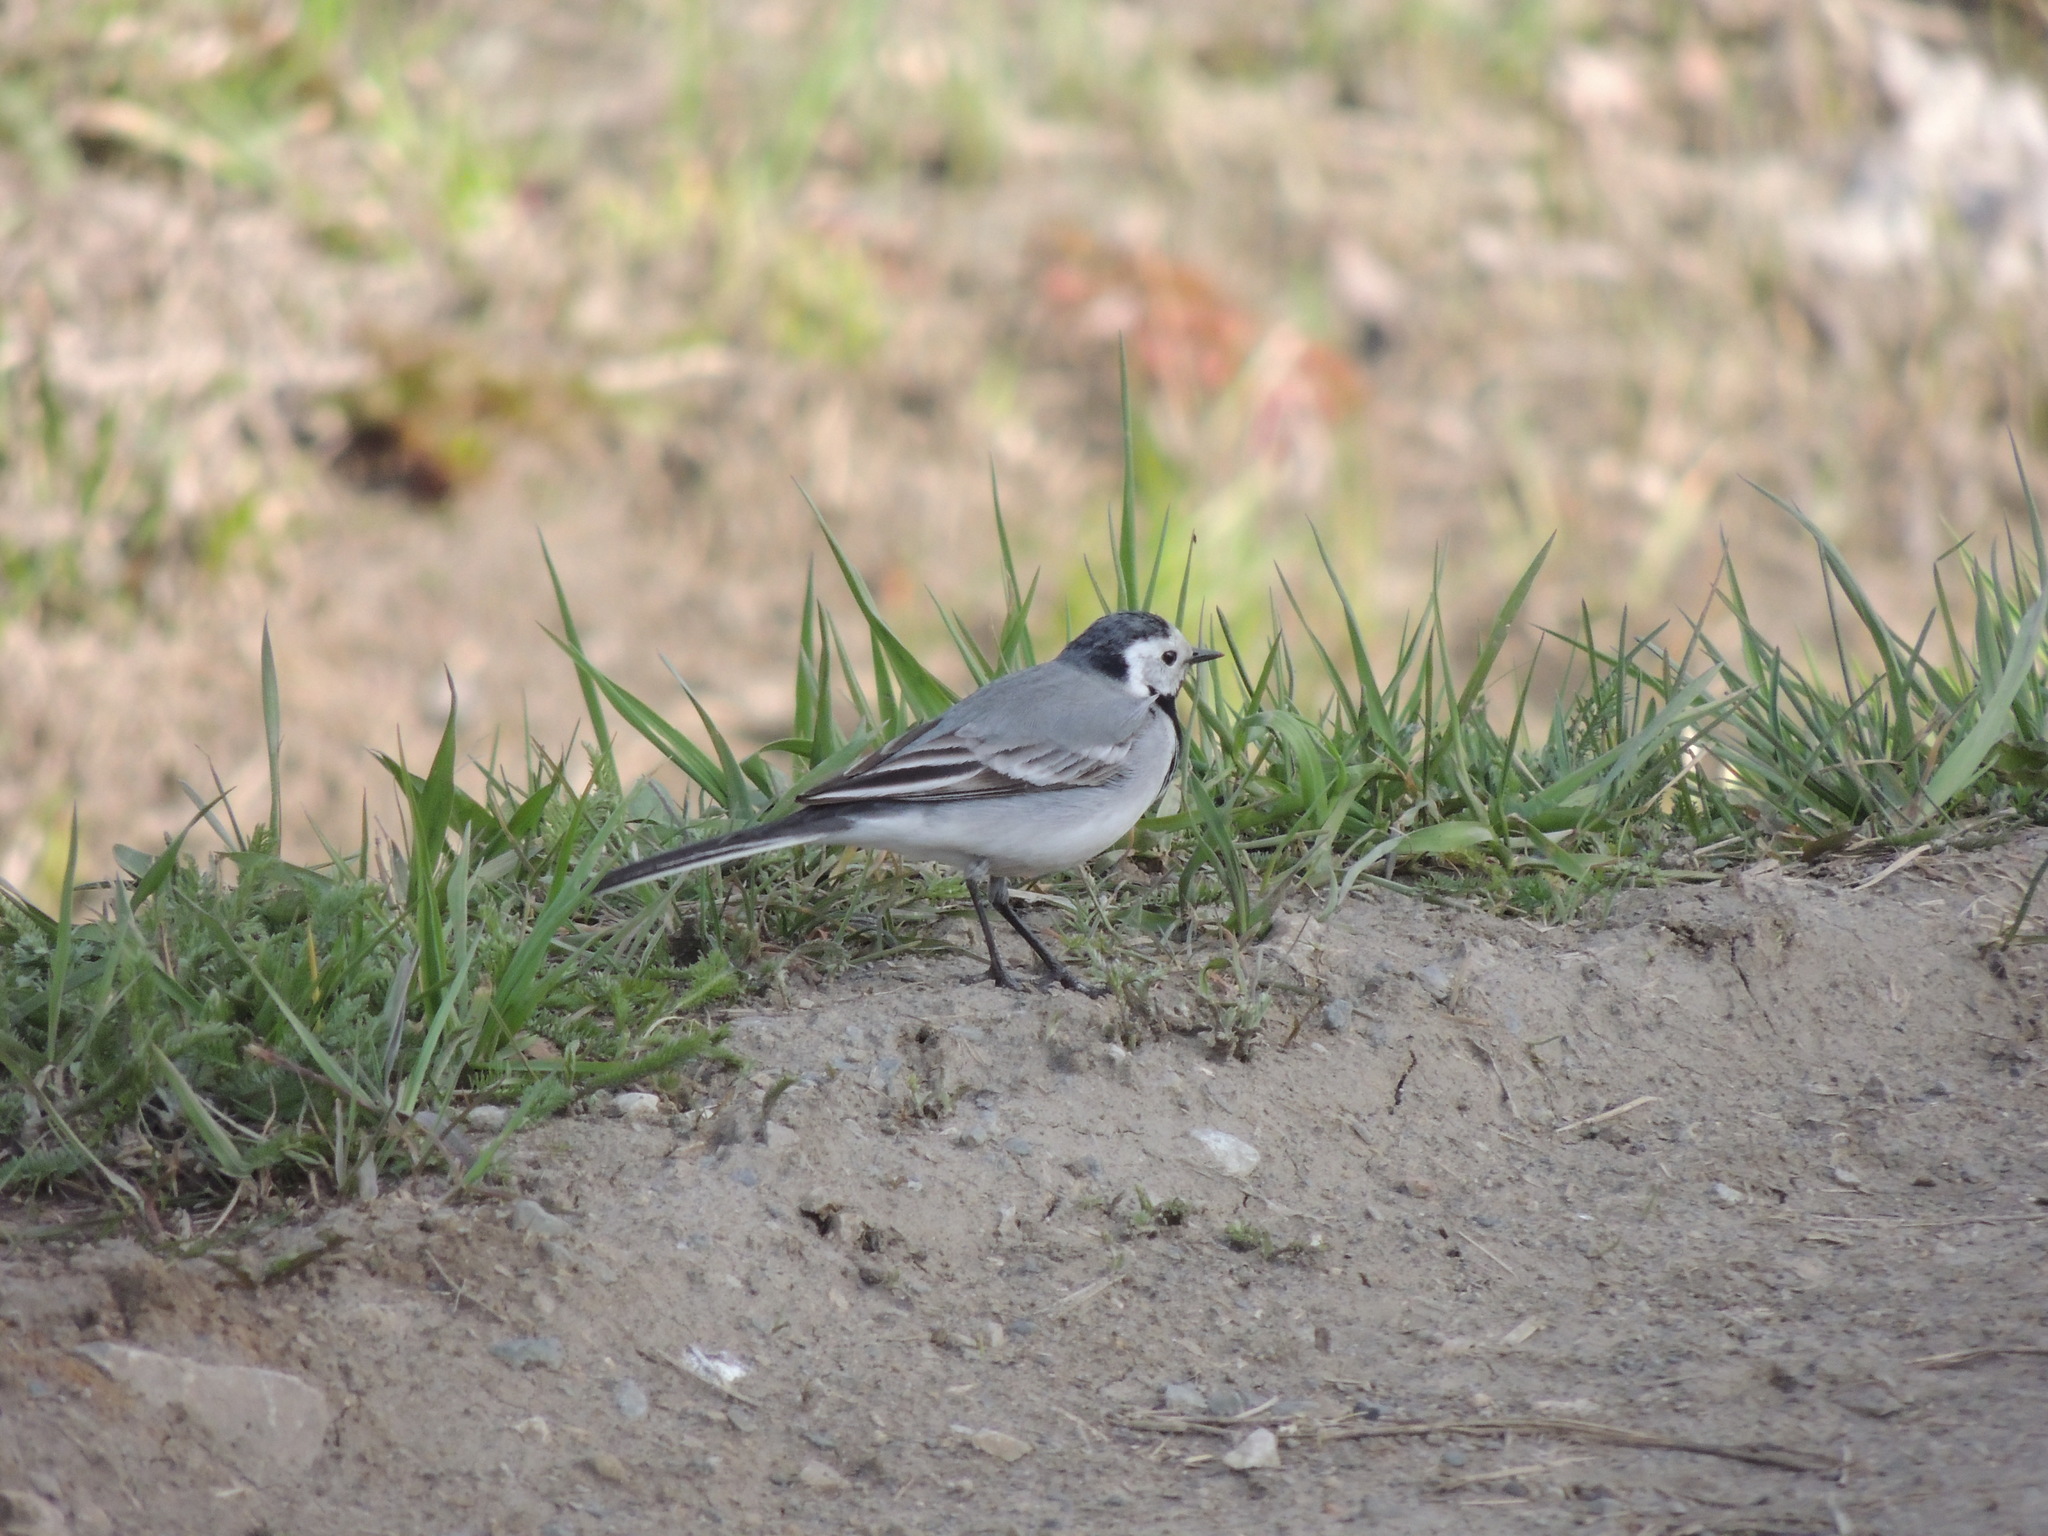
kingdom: Animalia
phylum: Chordata
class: Aves
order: Passeriformes
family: Motacillidae
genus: Motacilla
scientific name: Motacilla alba
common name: White wagtail
